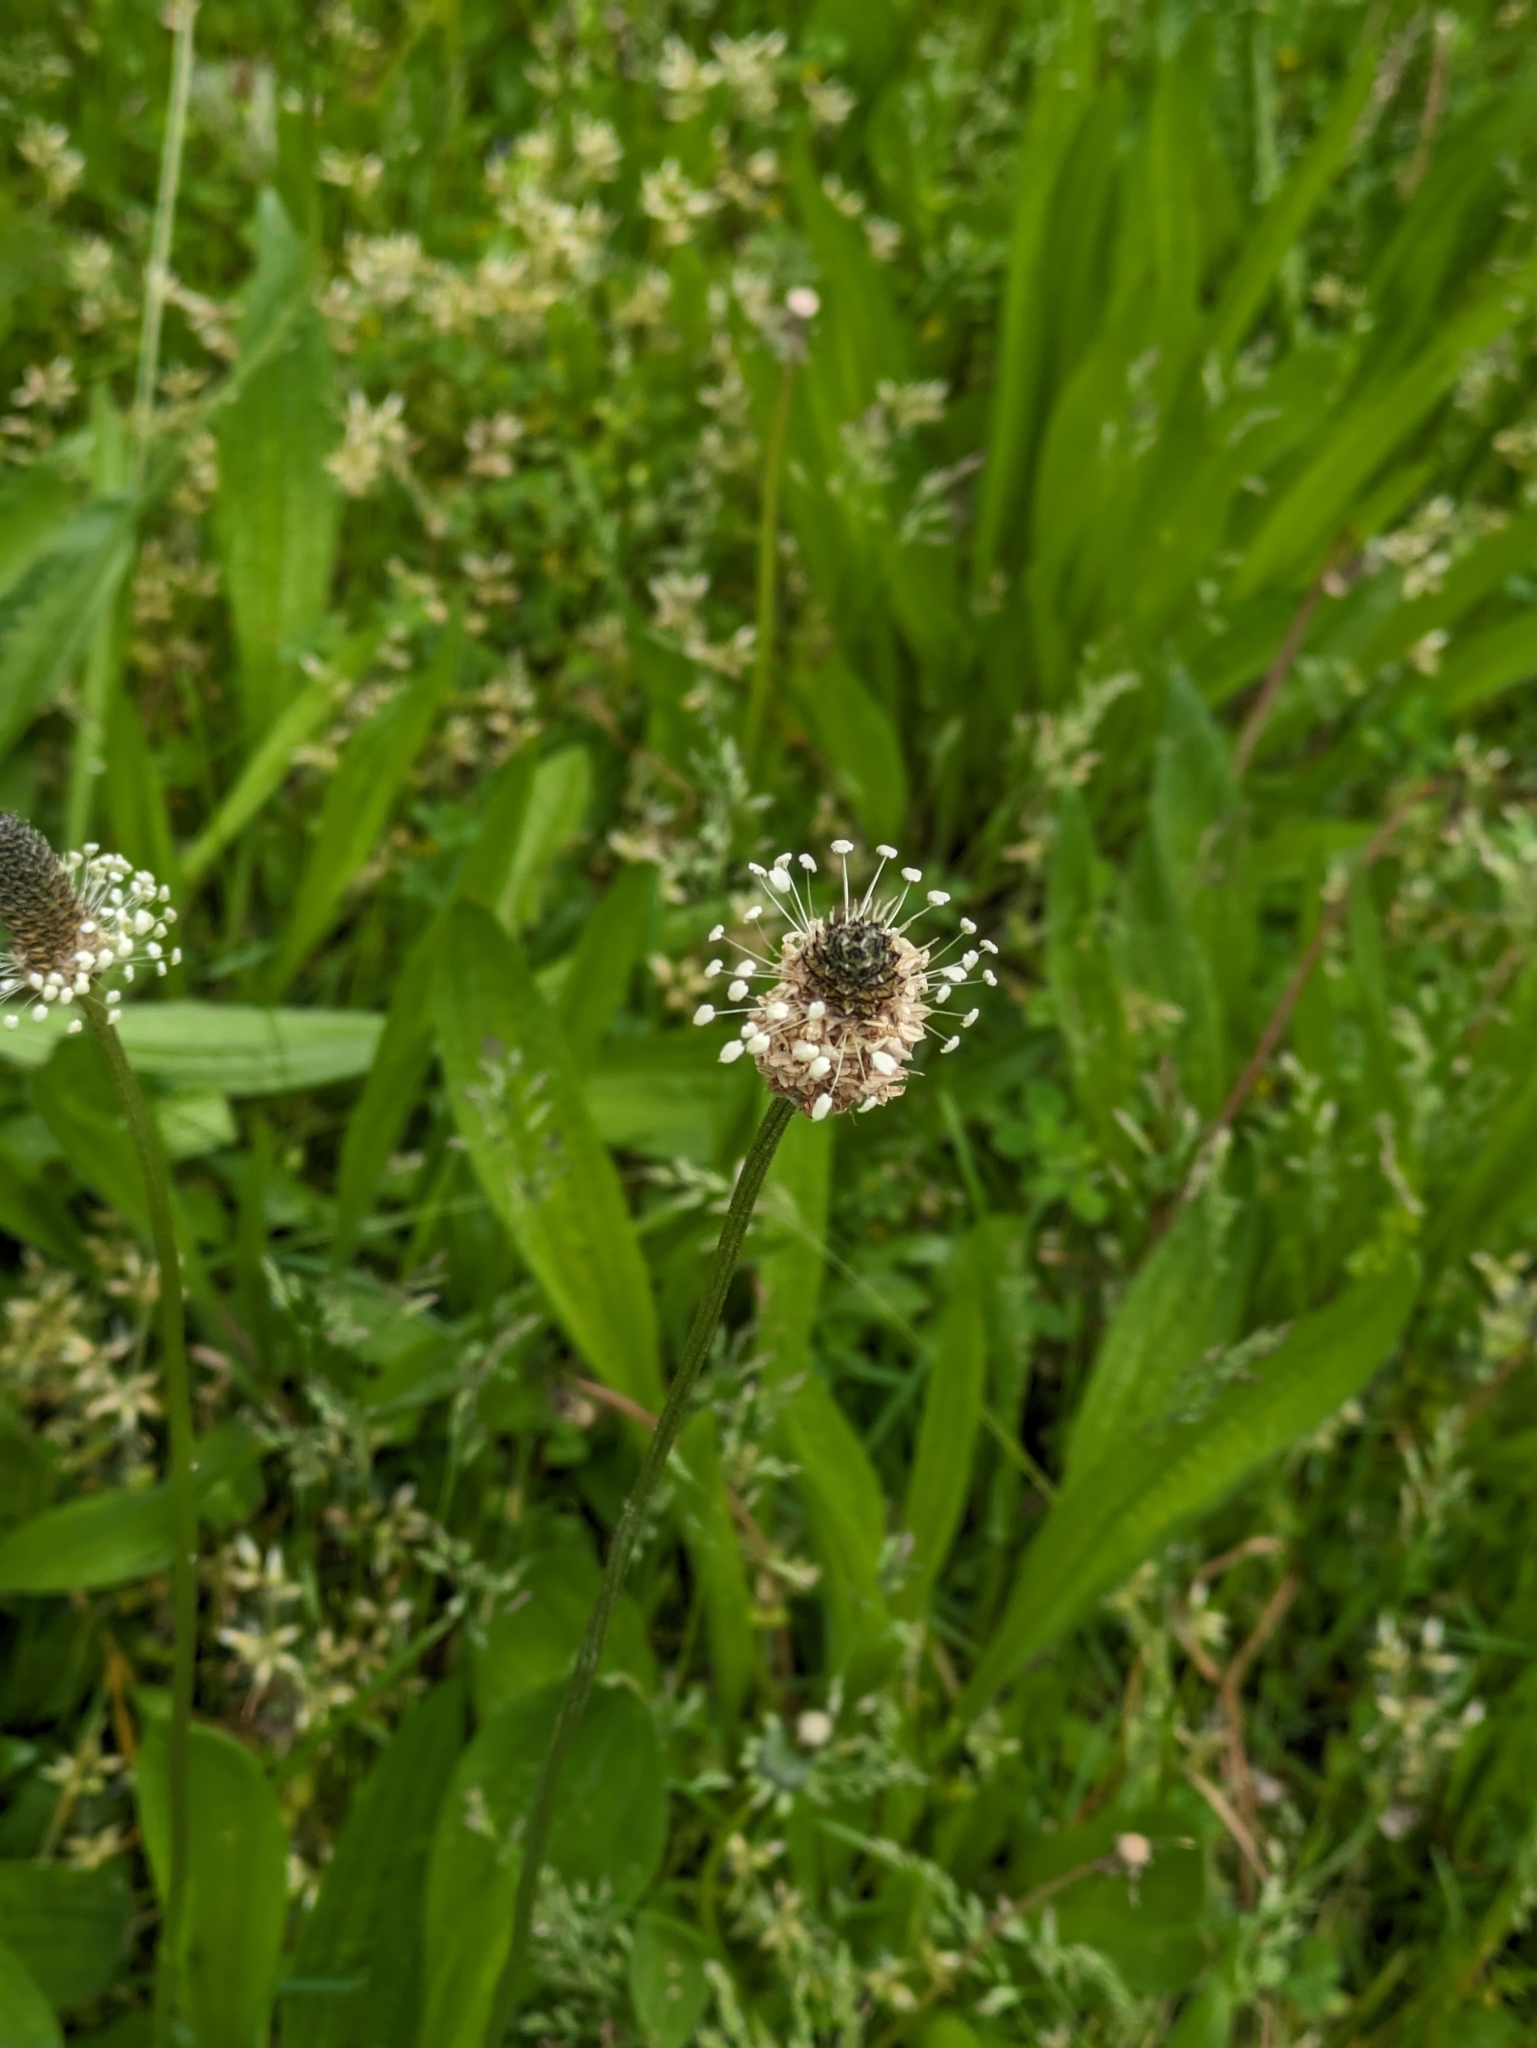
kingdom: Plantae
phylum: Tracheophyta
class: Magnoliopsida
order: Lamiales
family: Plantaginaceae
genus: Plantago
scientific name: Plantago lanceolata
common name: Ribwort plantain
